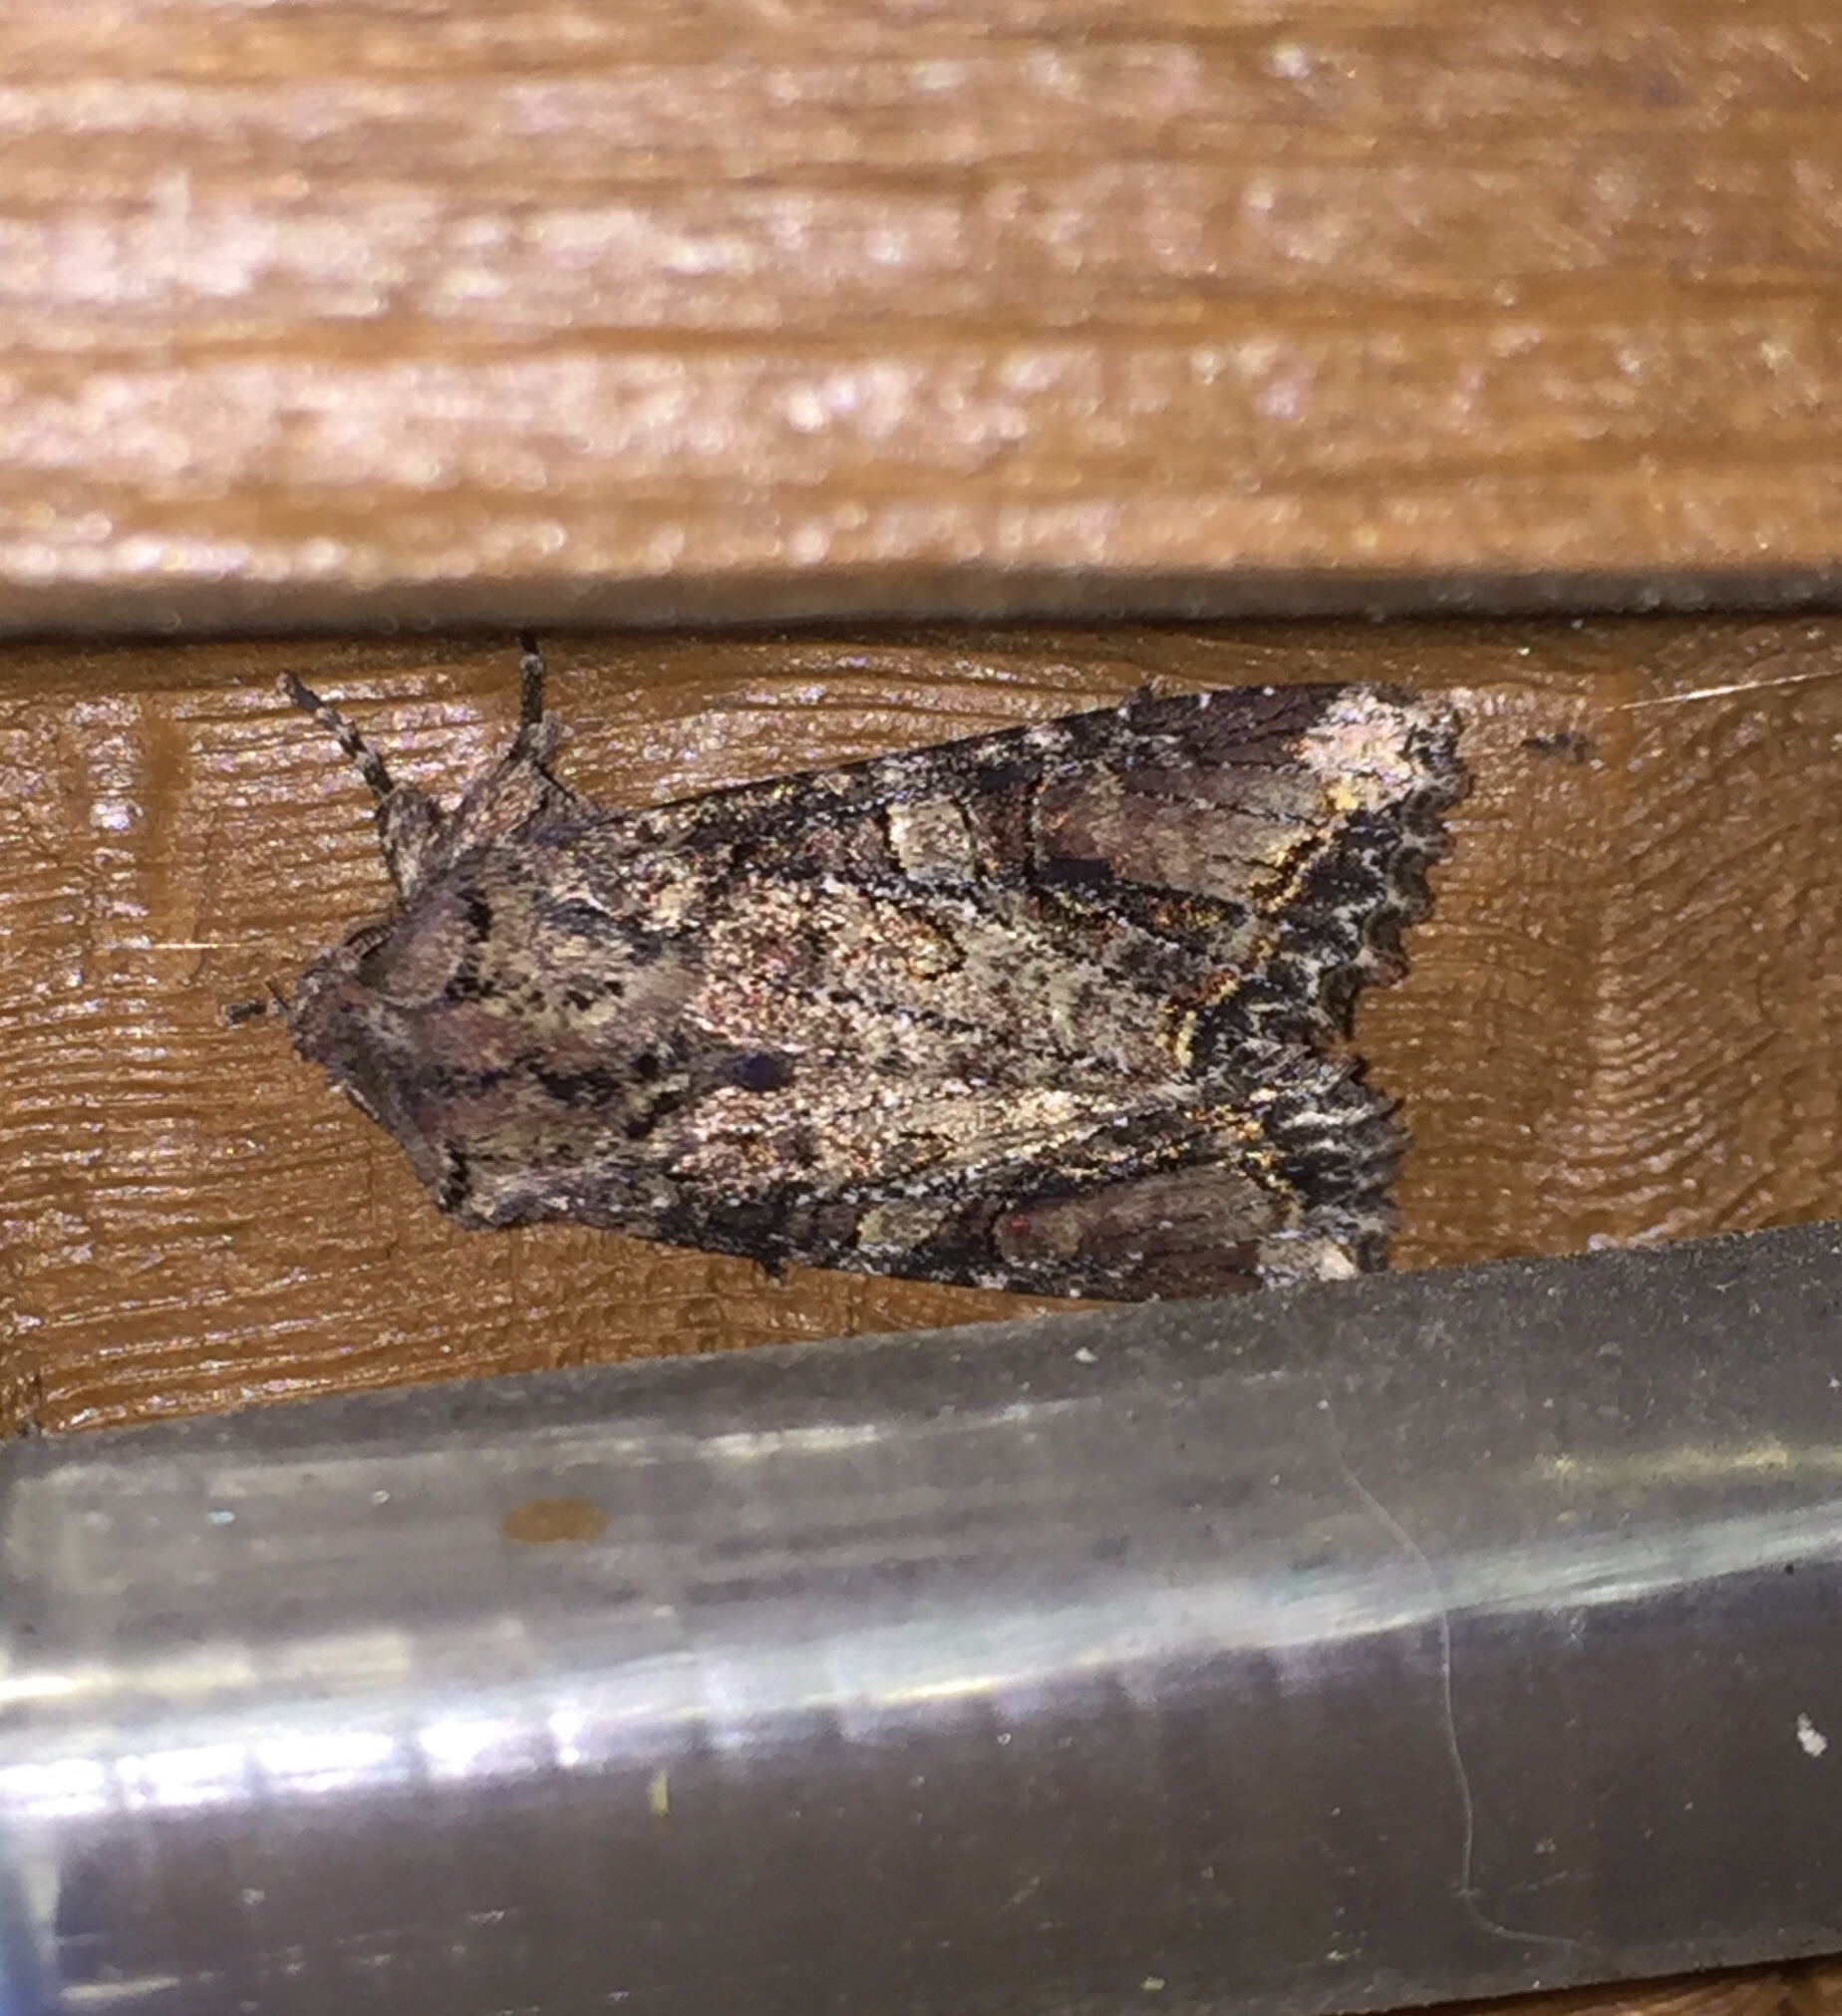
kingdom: Animalia
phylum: Arthropoda
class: Insecta
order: Lepidoptera
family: Noctuidae
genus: Egira
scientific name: Egira perlubens
